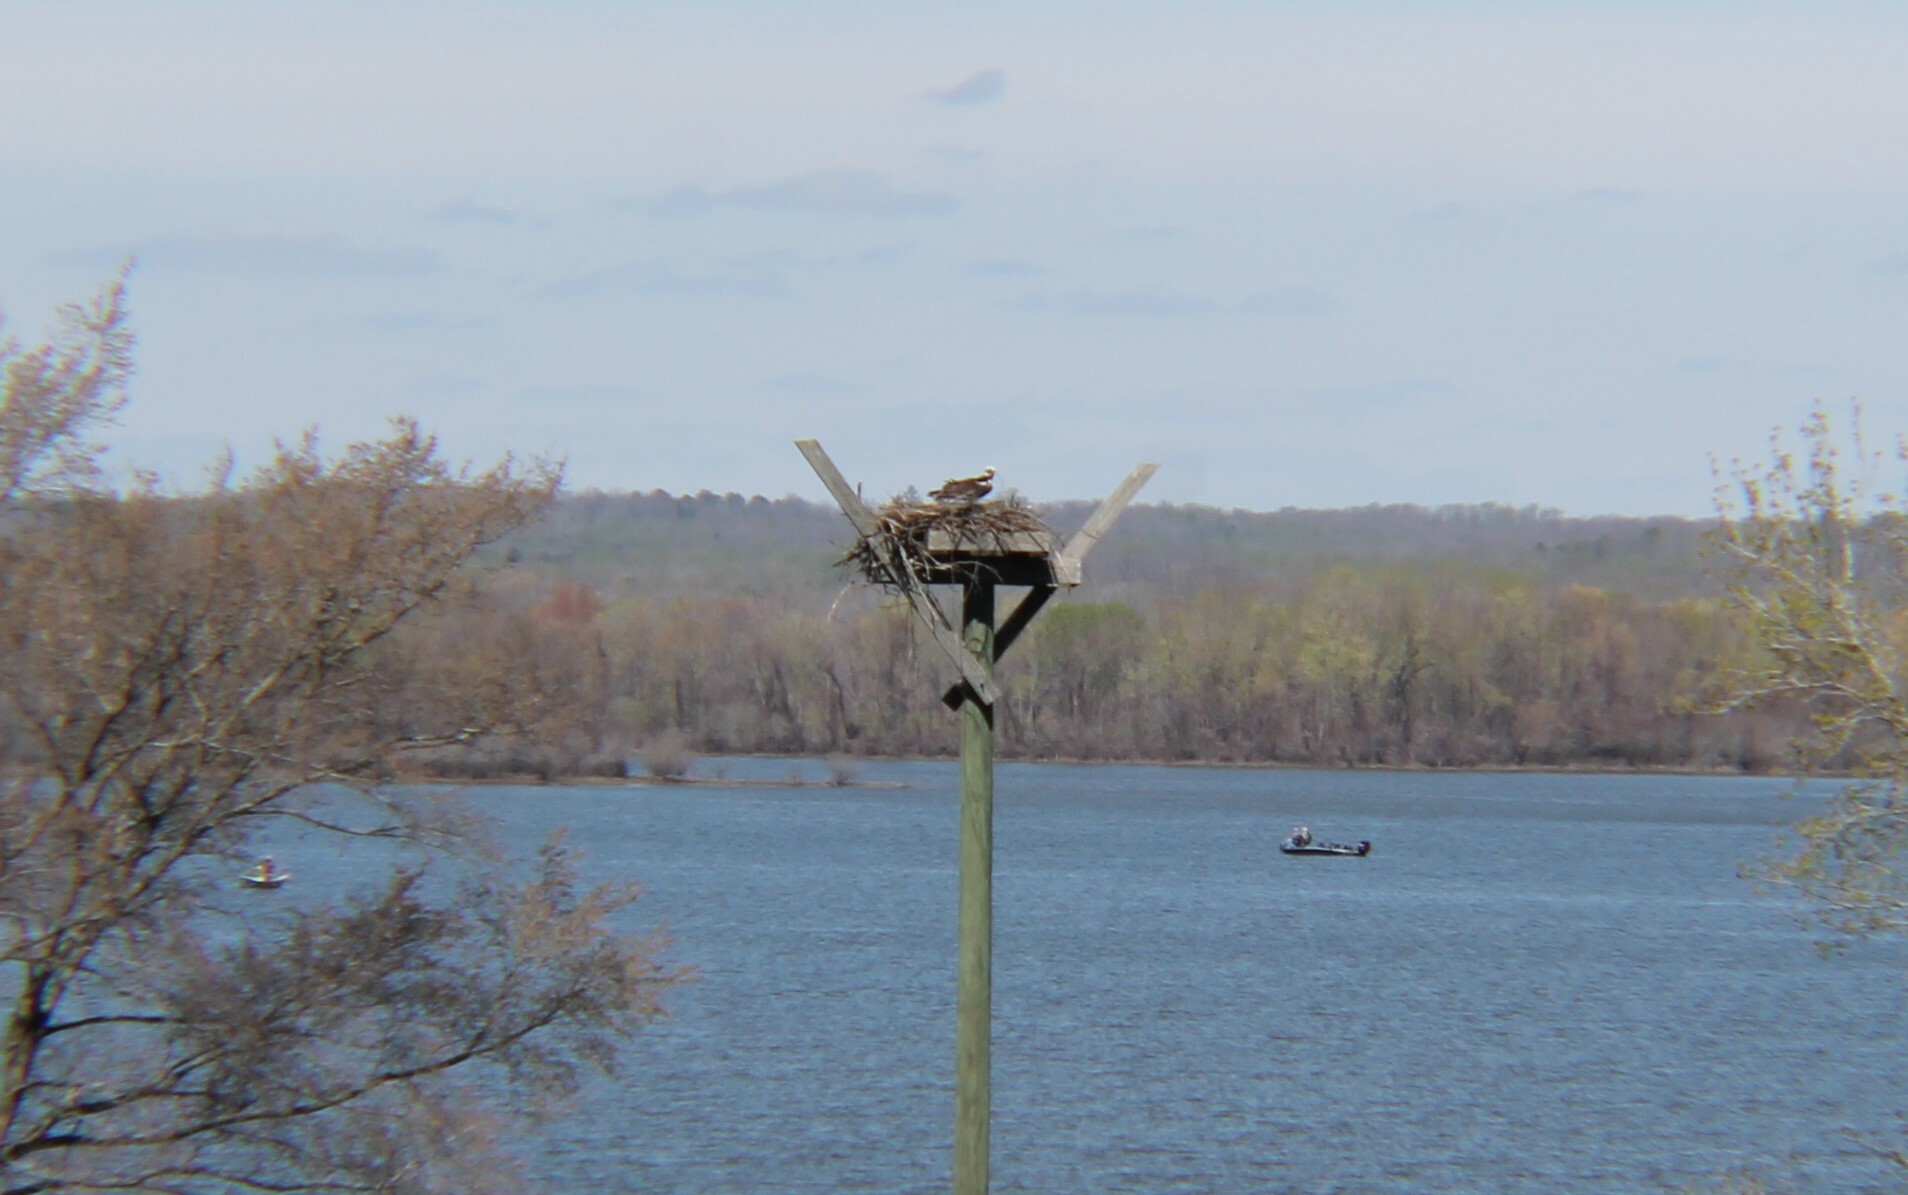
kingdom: Animalia
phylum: Chordata
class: Aves
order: Accipitriformes
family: Pandionidae
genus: Pandion
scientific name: Pandion haliaetus
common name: Osprey
